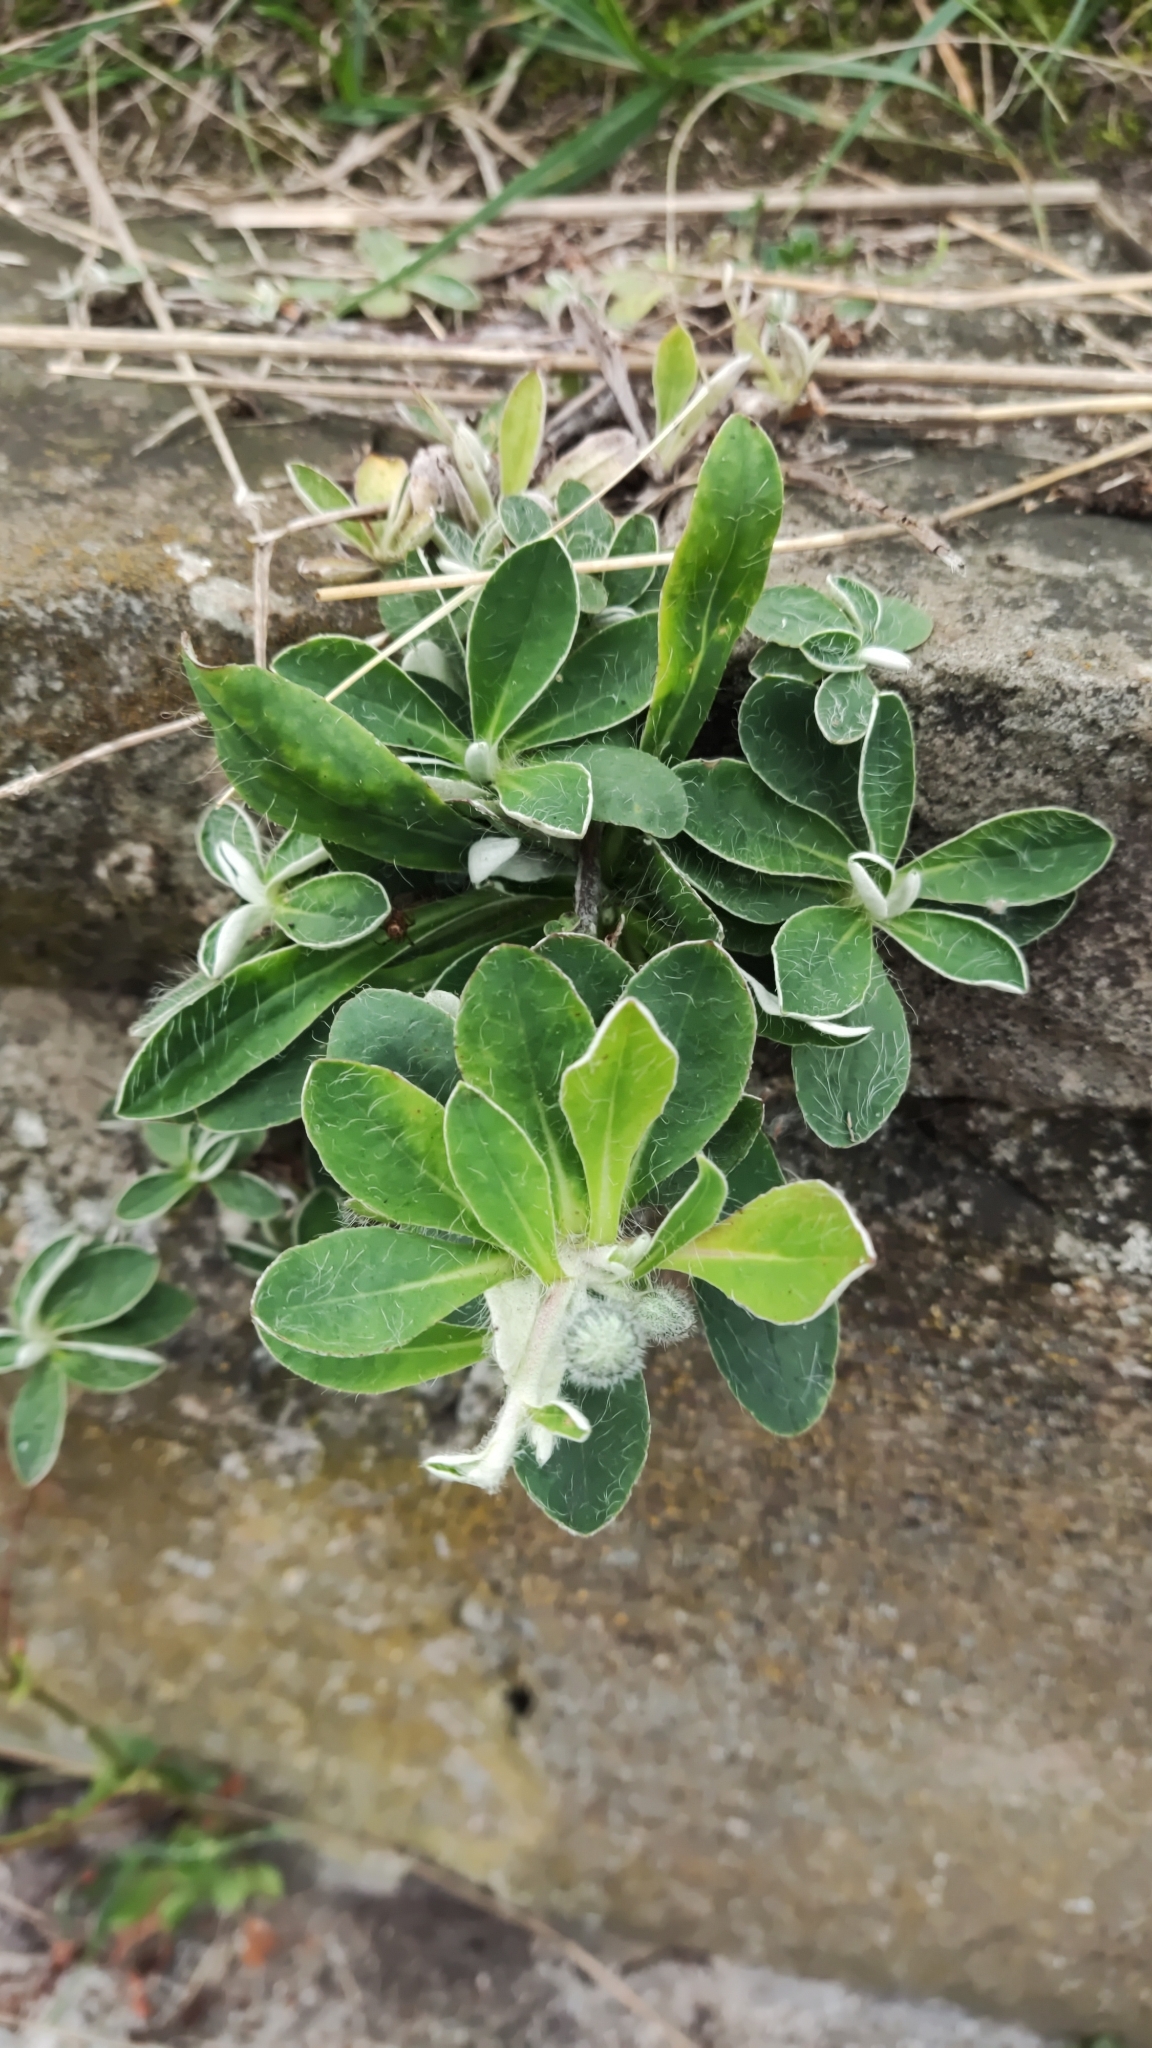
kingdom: Plantae
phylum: Tracheophyta
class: Magnoliopsida
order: Asterales
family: Asteraceae
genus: Pilosella
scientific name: Pilosella officinarum
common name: Mouse-ear hawkweed
